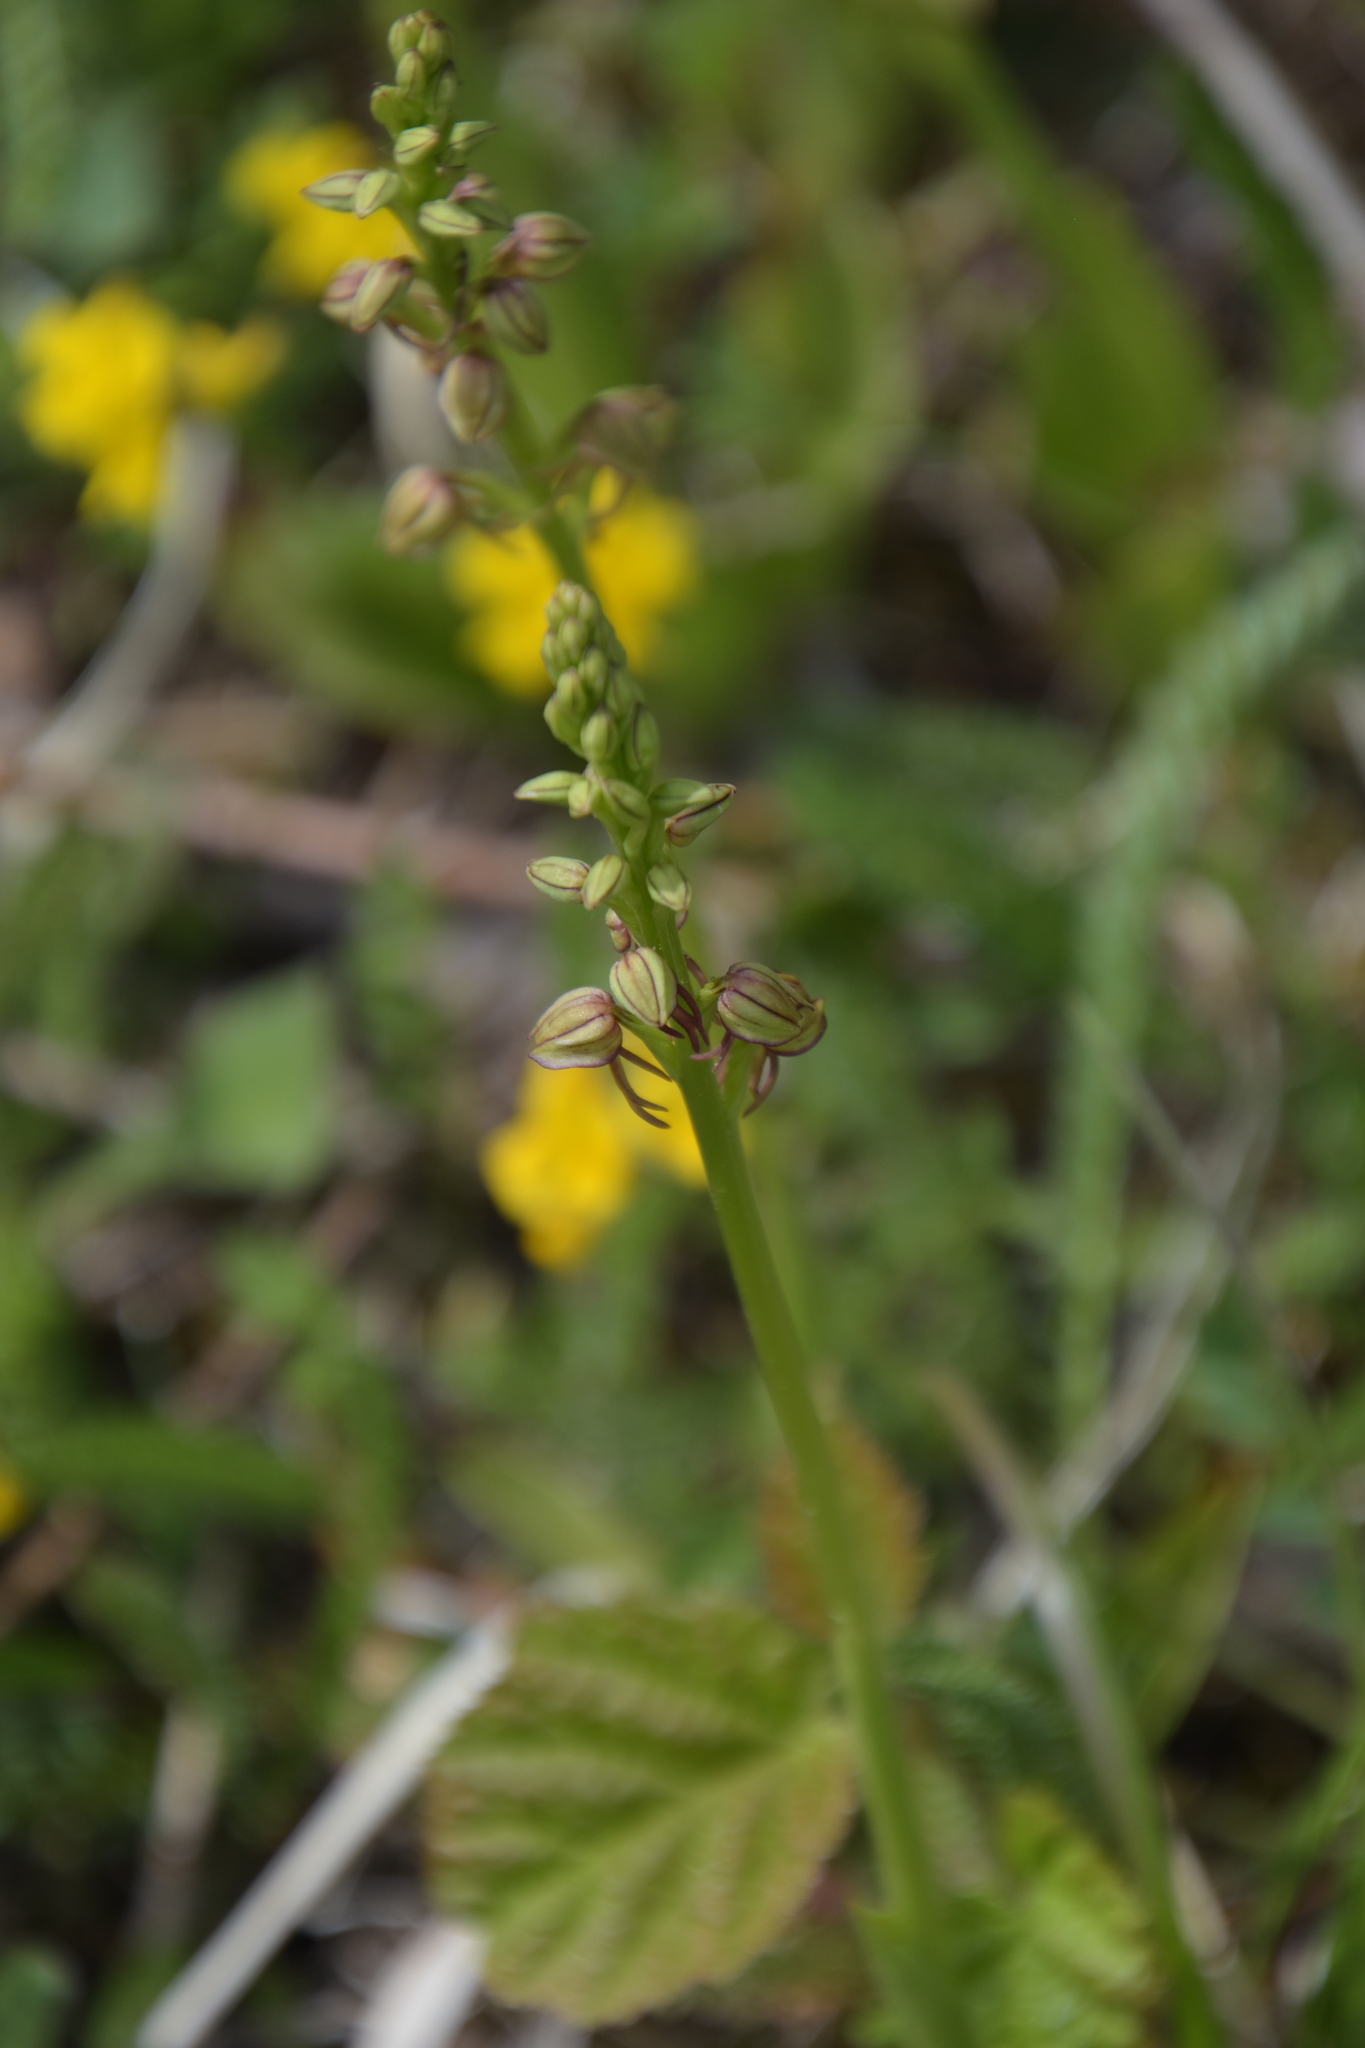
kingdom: Plantae
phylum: Tracheophyta
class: Liliopsida
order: Asparagales
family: Orchidaceae
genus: Orchis
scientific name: Orchis anthropophora
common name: Man orchid
